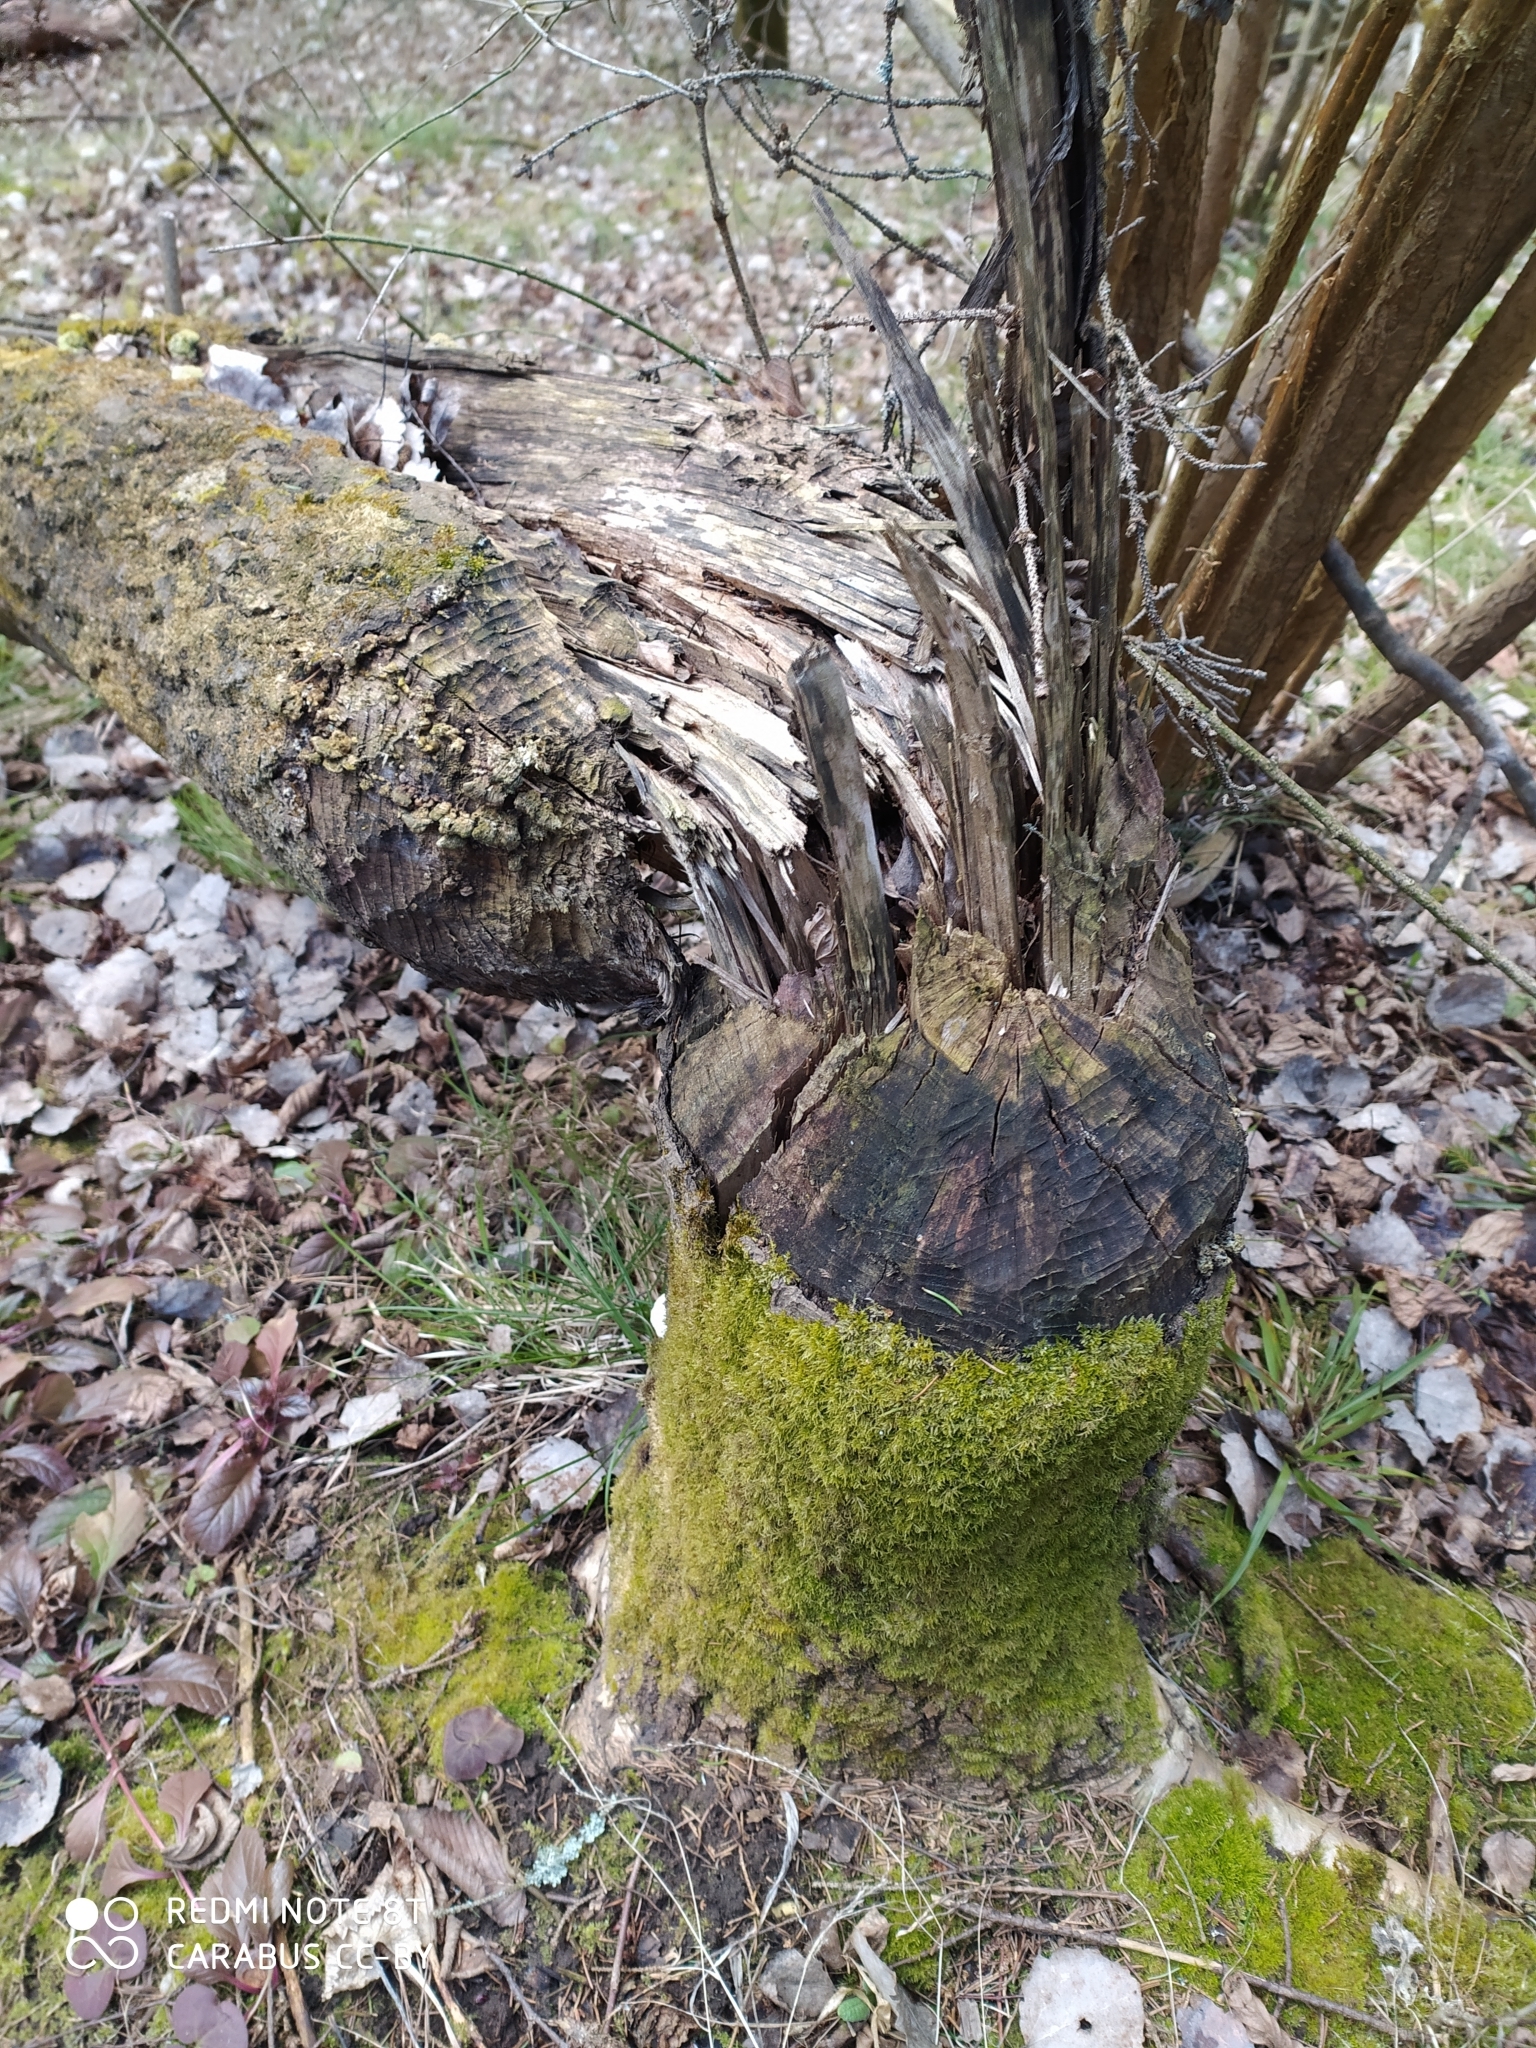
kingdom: Animalia
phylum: Chordata
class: Mammalia
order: Rodentia
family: Castoridae
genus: Castor
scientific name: Castor fiber
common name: Eurasian beaver
